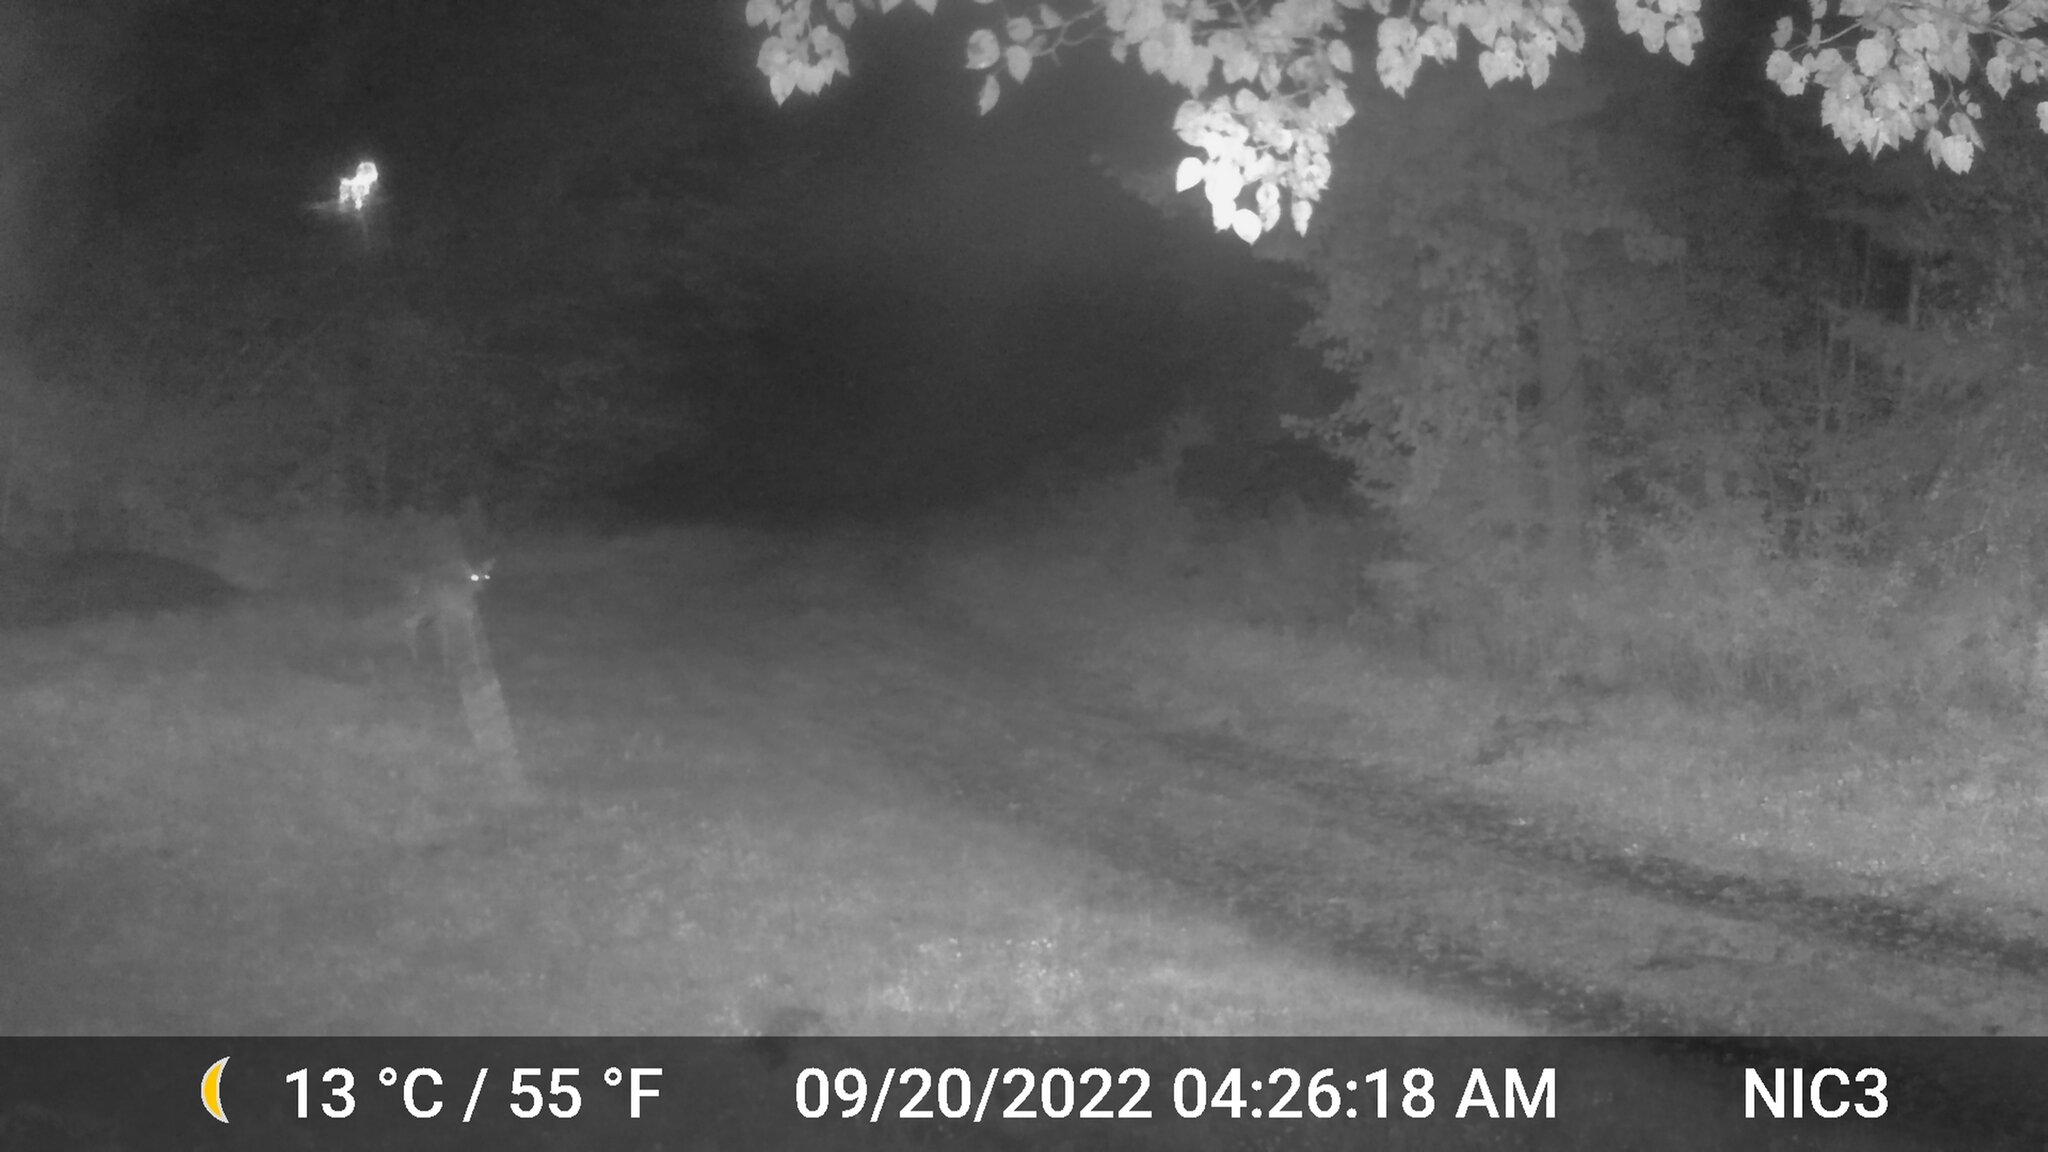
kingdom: Animalia
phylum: Chordata
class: Mammalia
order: Artiodactyla
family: Cervidae
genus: Odocoileus
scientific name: Odocoileus virginianus
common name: White-tailed deer
